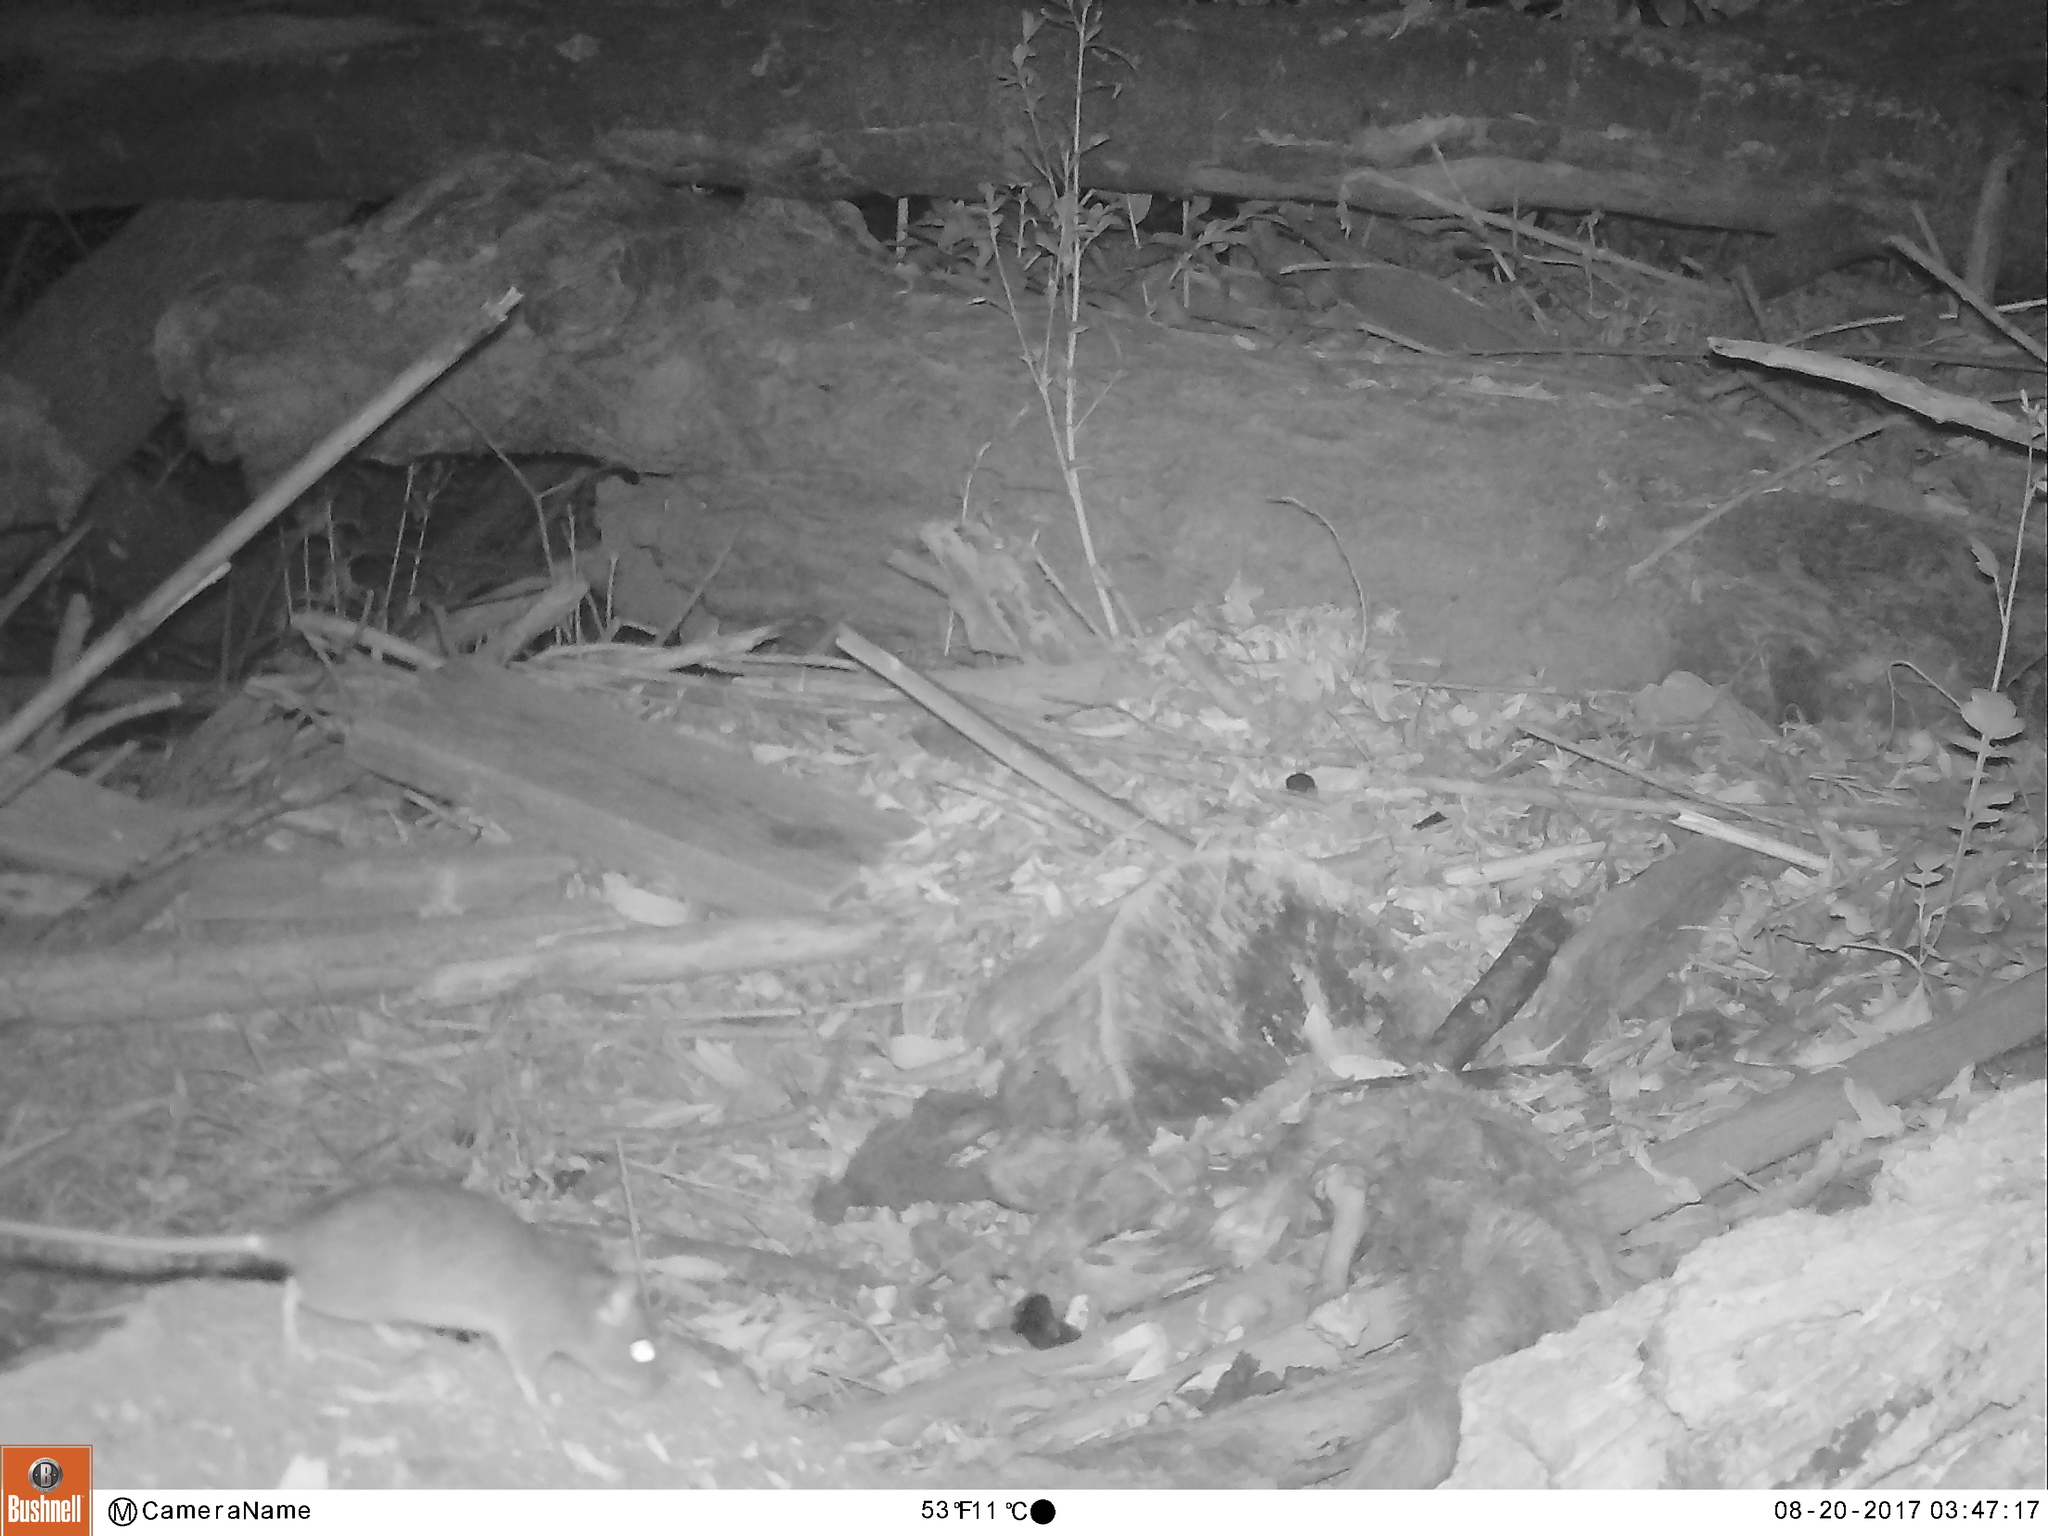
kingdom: Animalia
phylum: Chordata
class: Mammalia
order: Rodentia
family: Cricetidae
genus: Neotoma
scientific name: Neotoma fuscipes
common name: Dusky-footed woodrat
